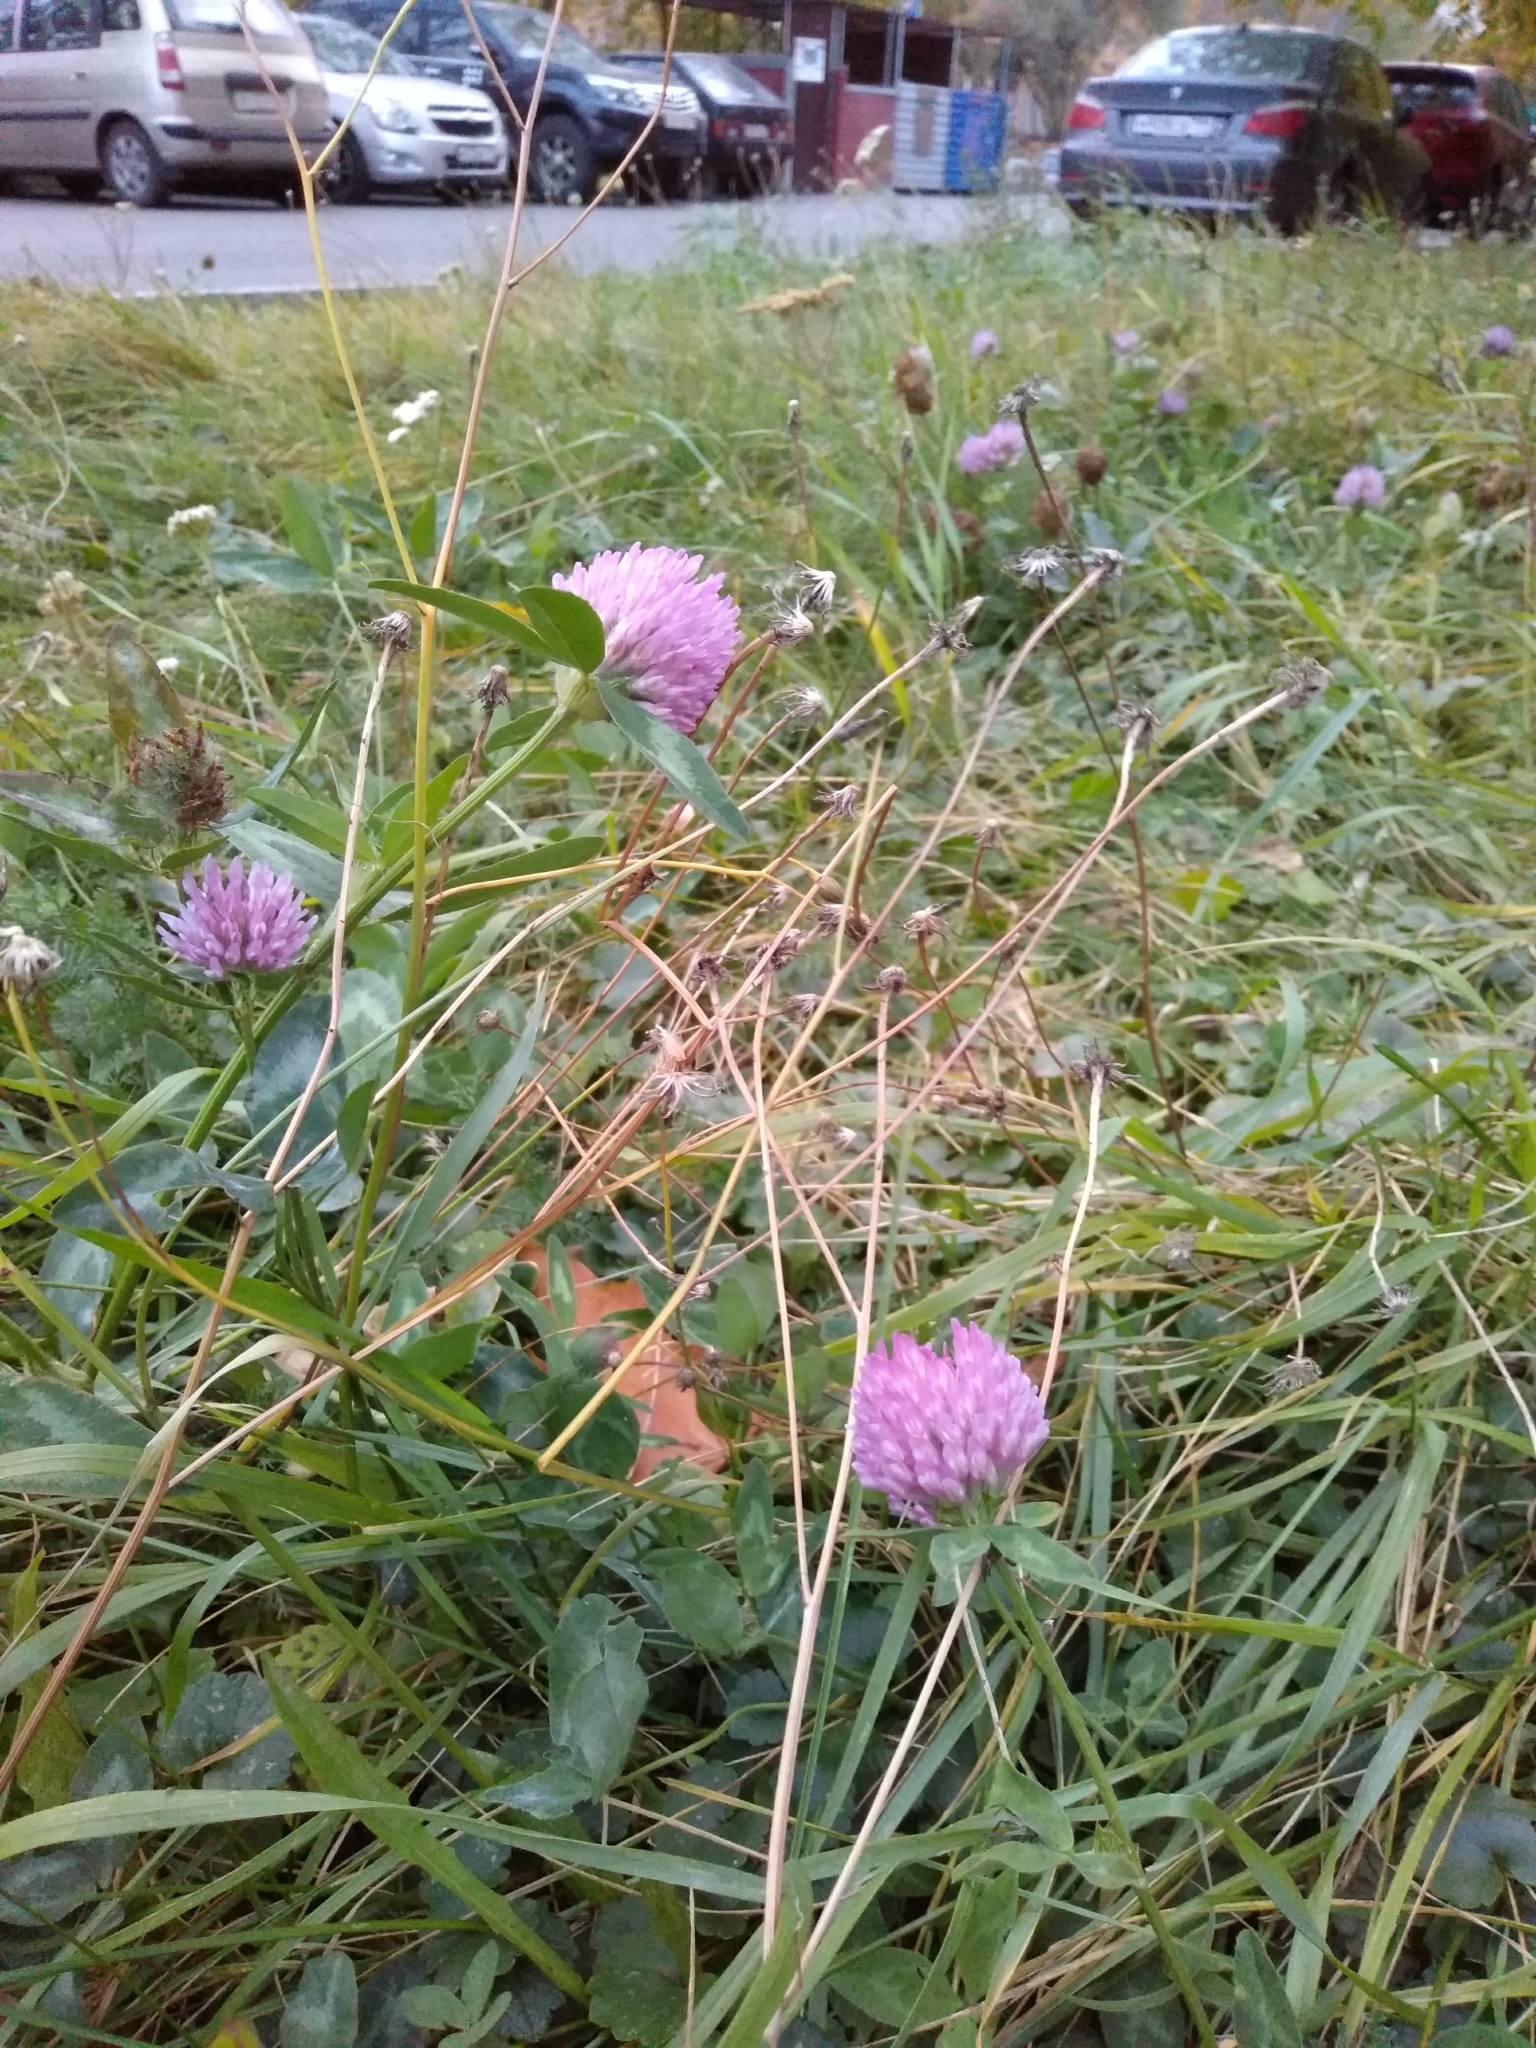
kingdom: Plantae
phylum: Tracheophyta
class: Magnoliopsida
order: Fabales
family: Fabaceae
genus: Trifolium
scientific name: Trifolium pratense
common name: Red clover
